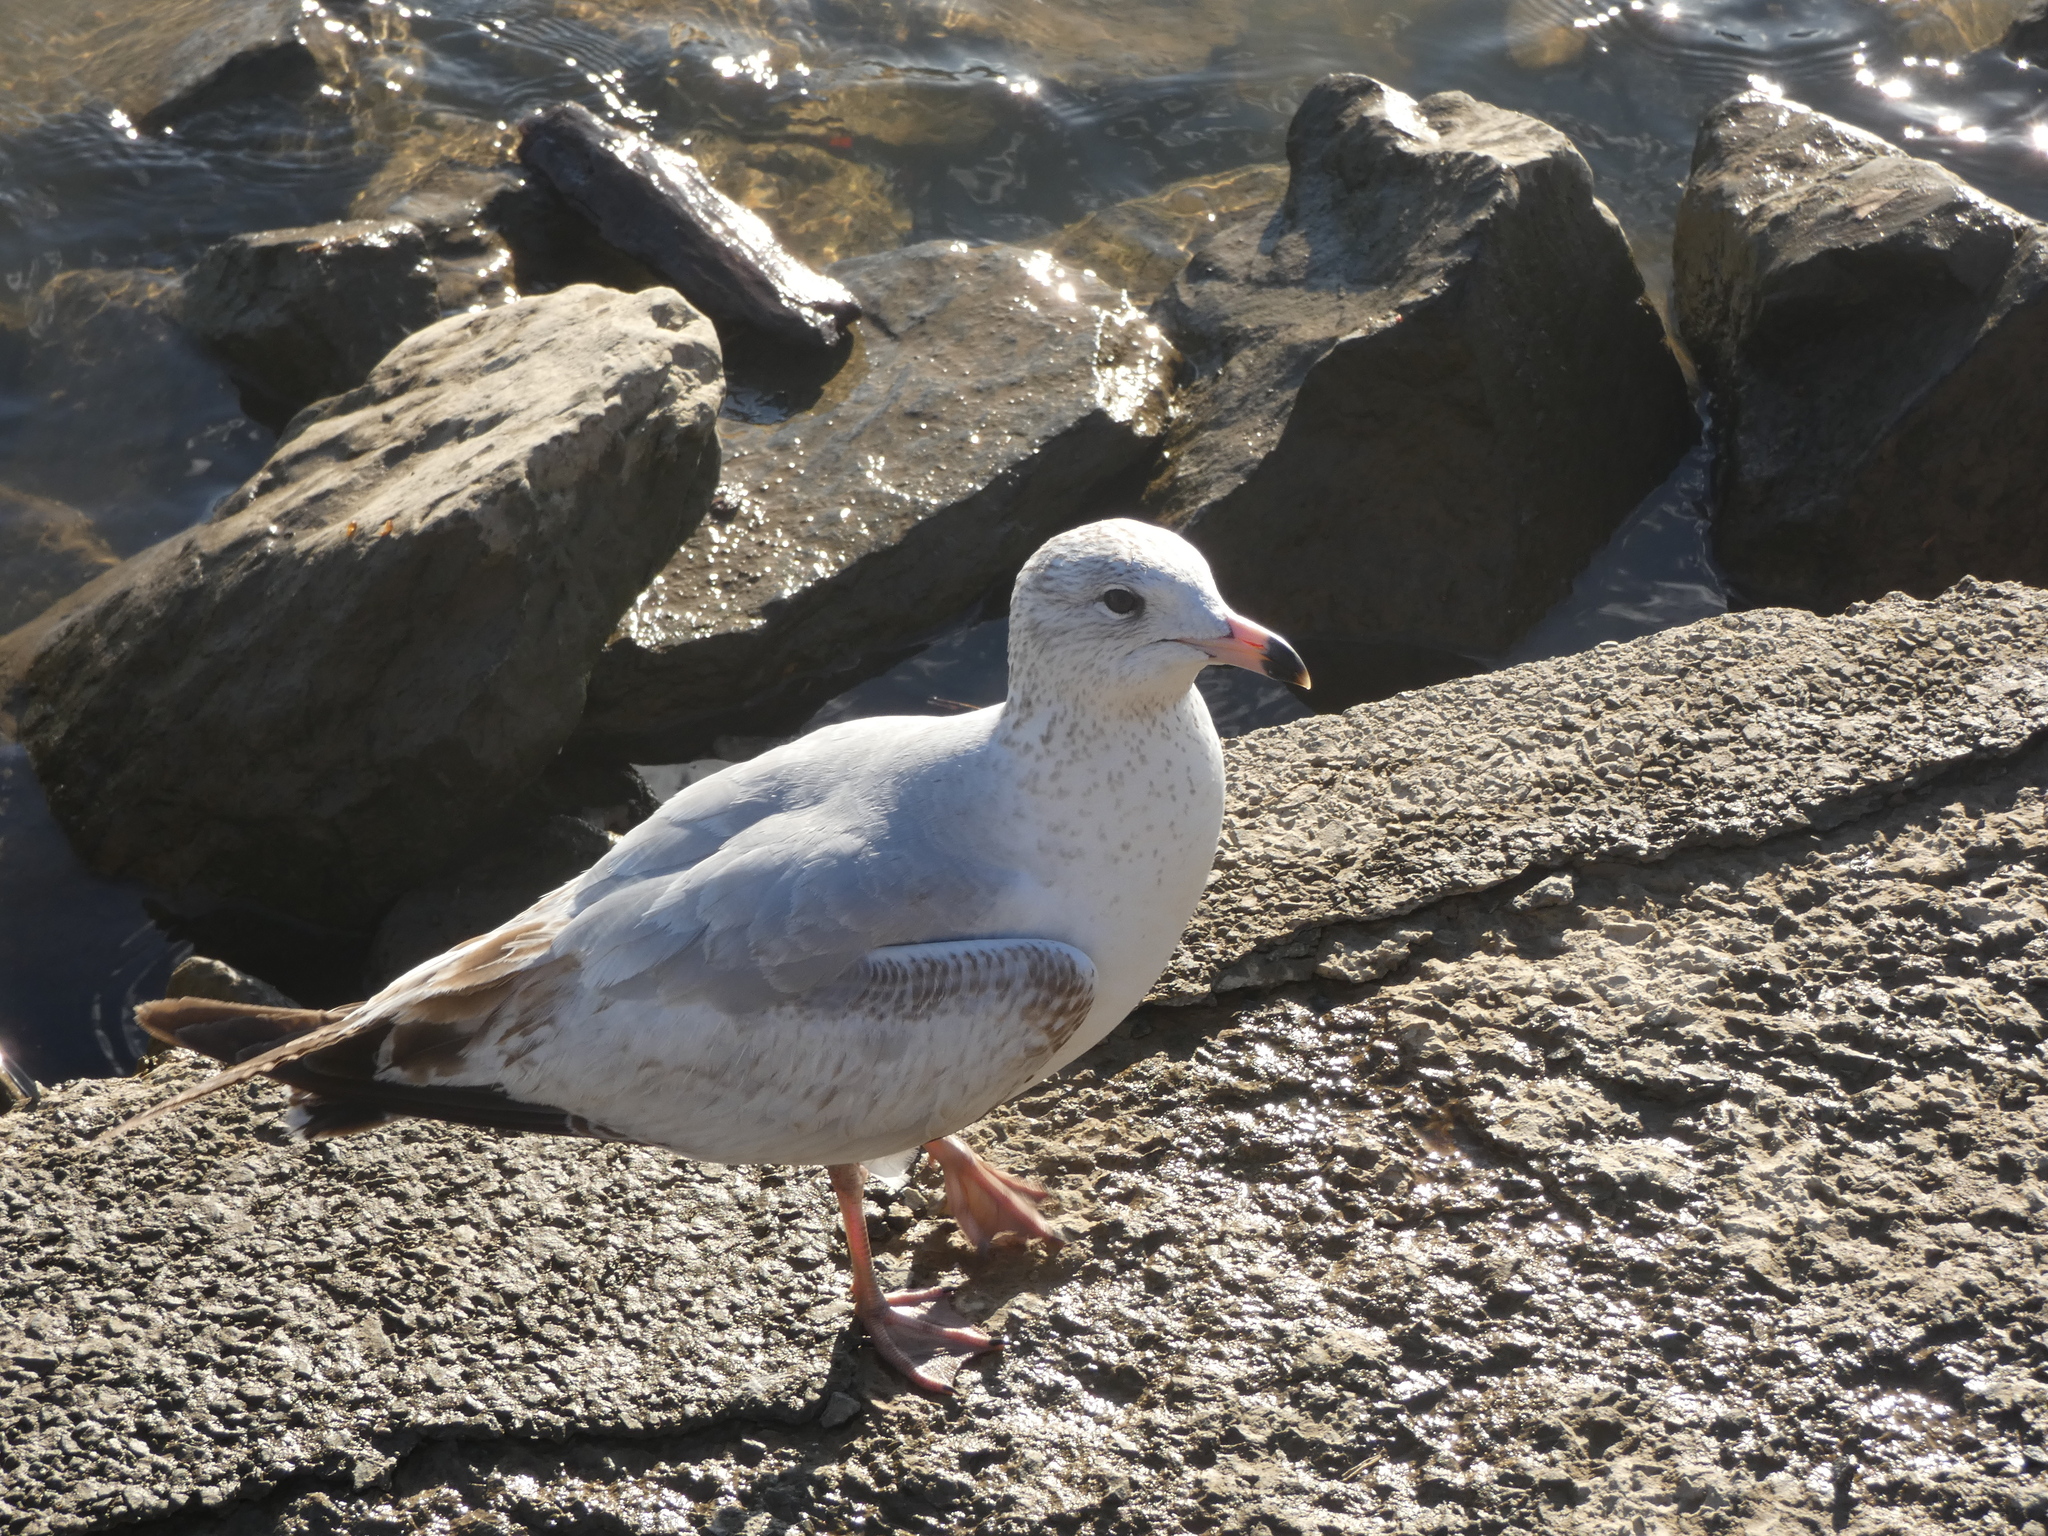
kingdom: Animalia
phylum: Chordata
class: Aves
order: Charadriiformes
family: Laridae
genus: Larus
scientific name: Larus delawarensis
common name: Ring-billed gull
